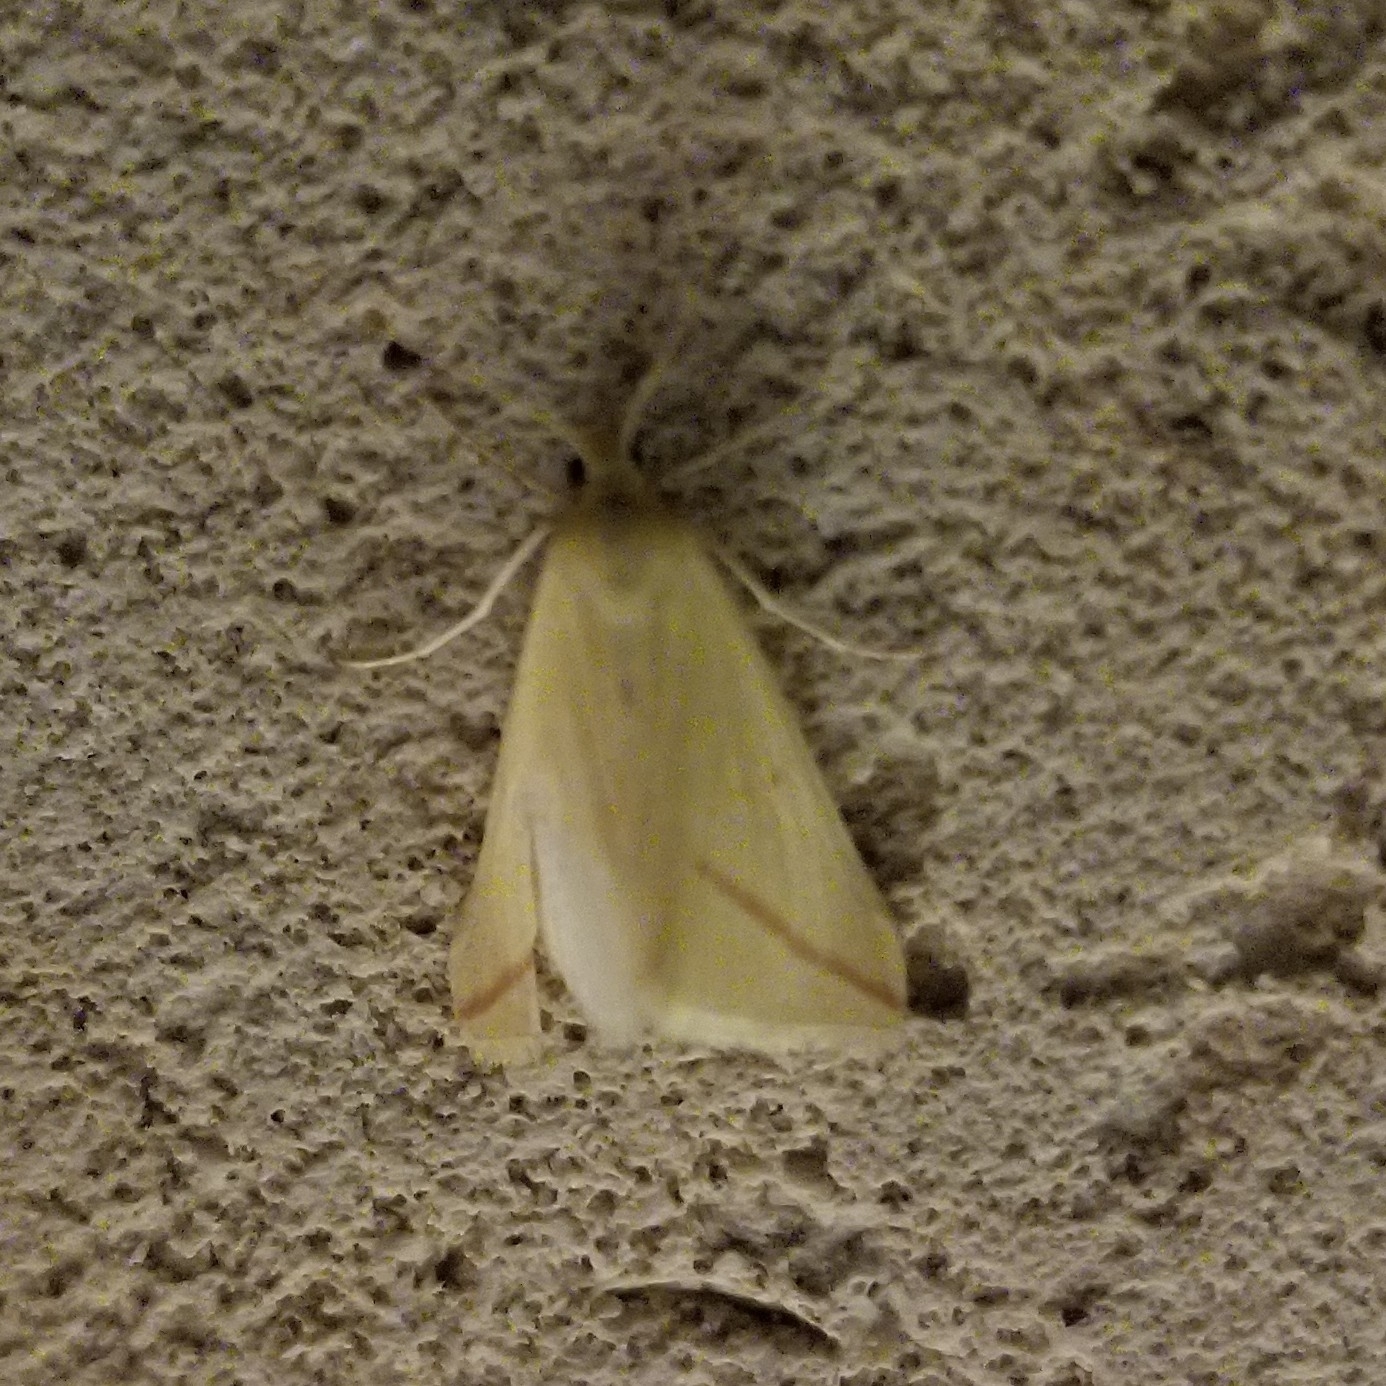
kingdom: Animalia
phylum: Arthropoda
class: Insecta
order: Lepidoptera
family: Geometridae
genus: Rhodometra
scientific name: Rhodometra sacraria
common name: Vestal
